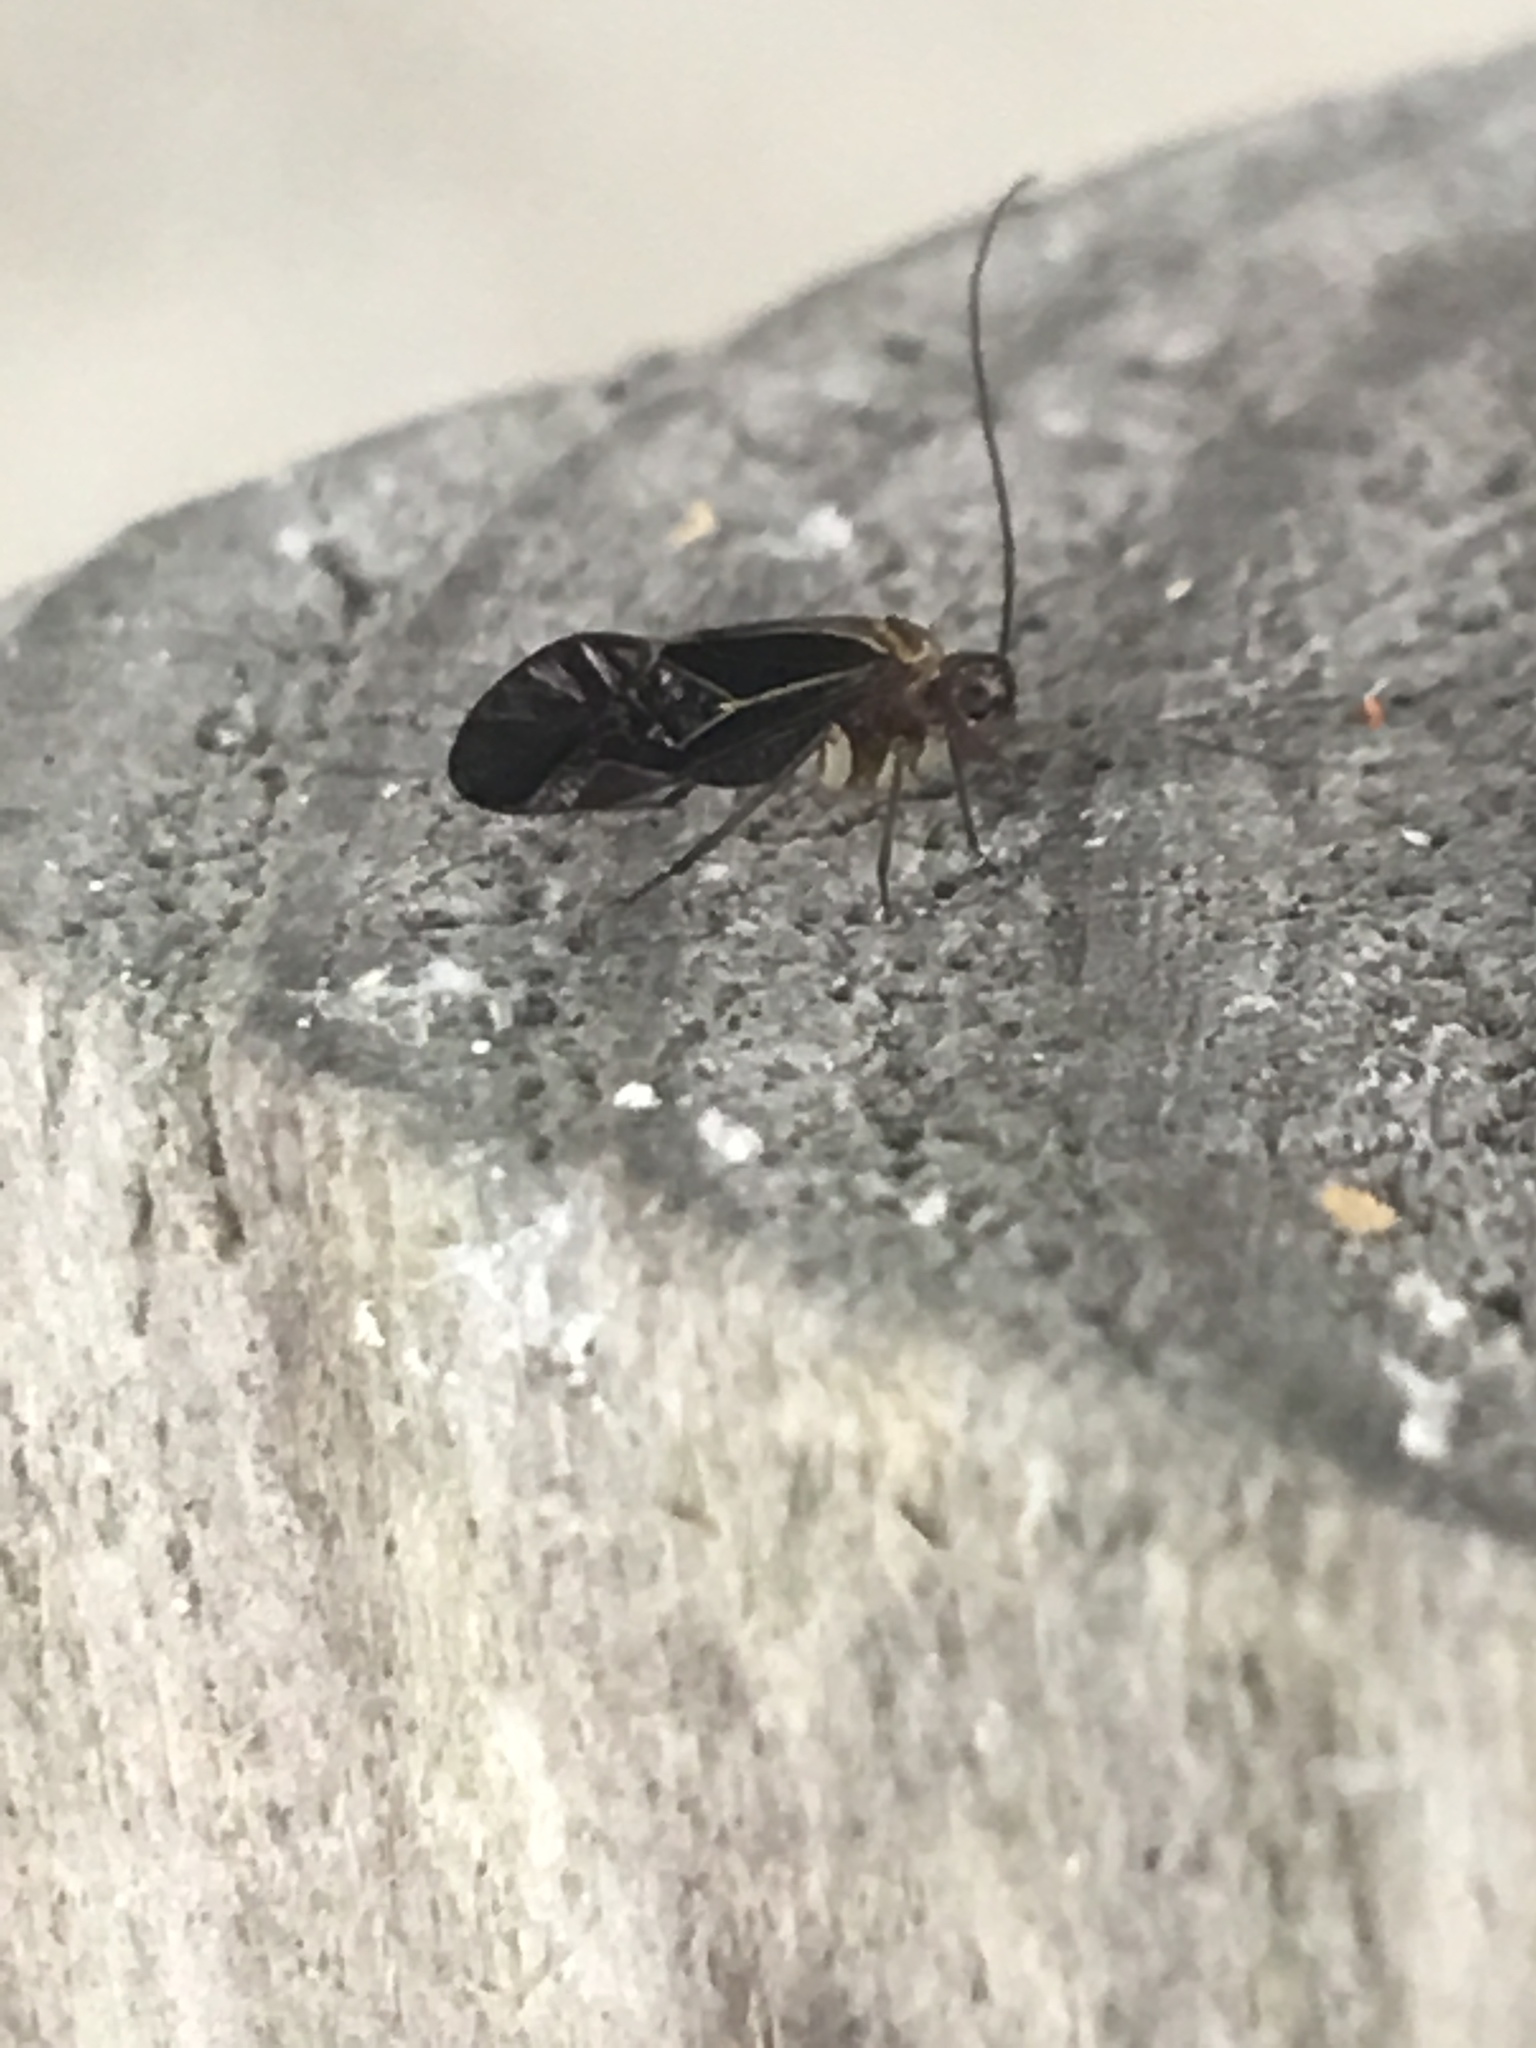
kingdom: Animalia
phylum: Arthropoda
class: Insecta
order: Psocodea
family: Psocidae
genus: Cerastipsocus
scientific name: Cerastipsocus venosus
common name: Tree cattle
